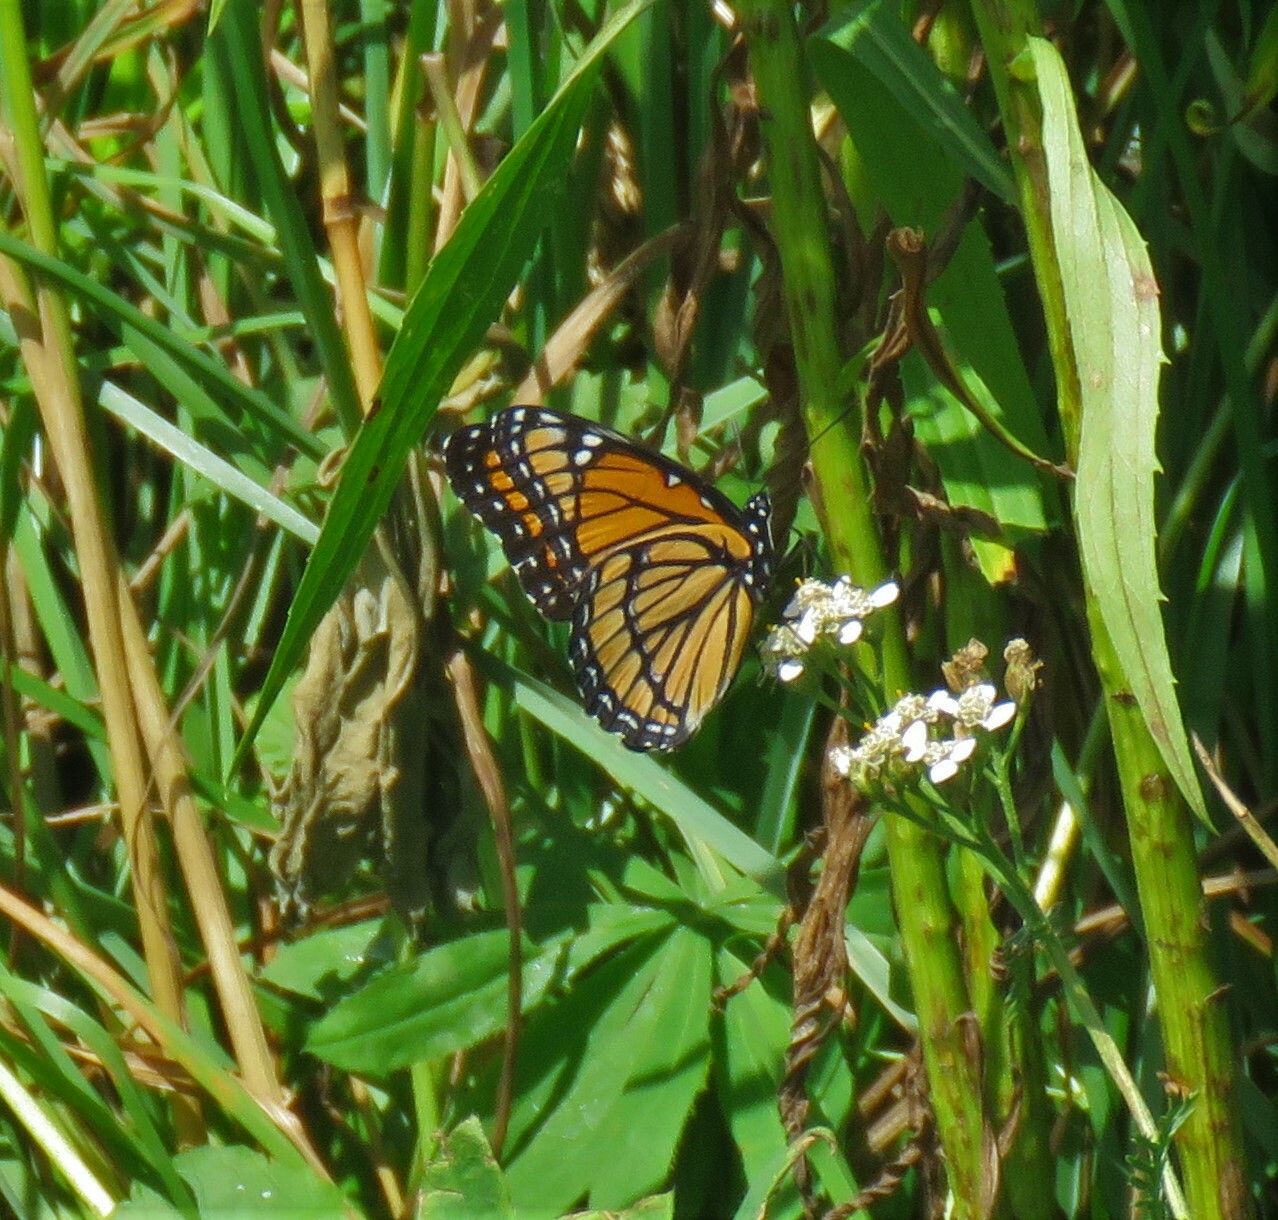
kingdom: Animalia
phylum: Arthropoda
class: Insecta
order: Lepidoptera
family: Nymphalidae
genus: Limenitis
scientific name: Limenitis archippus
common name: Viceroy
